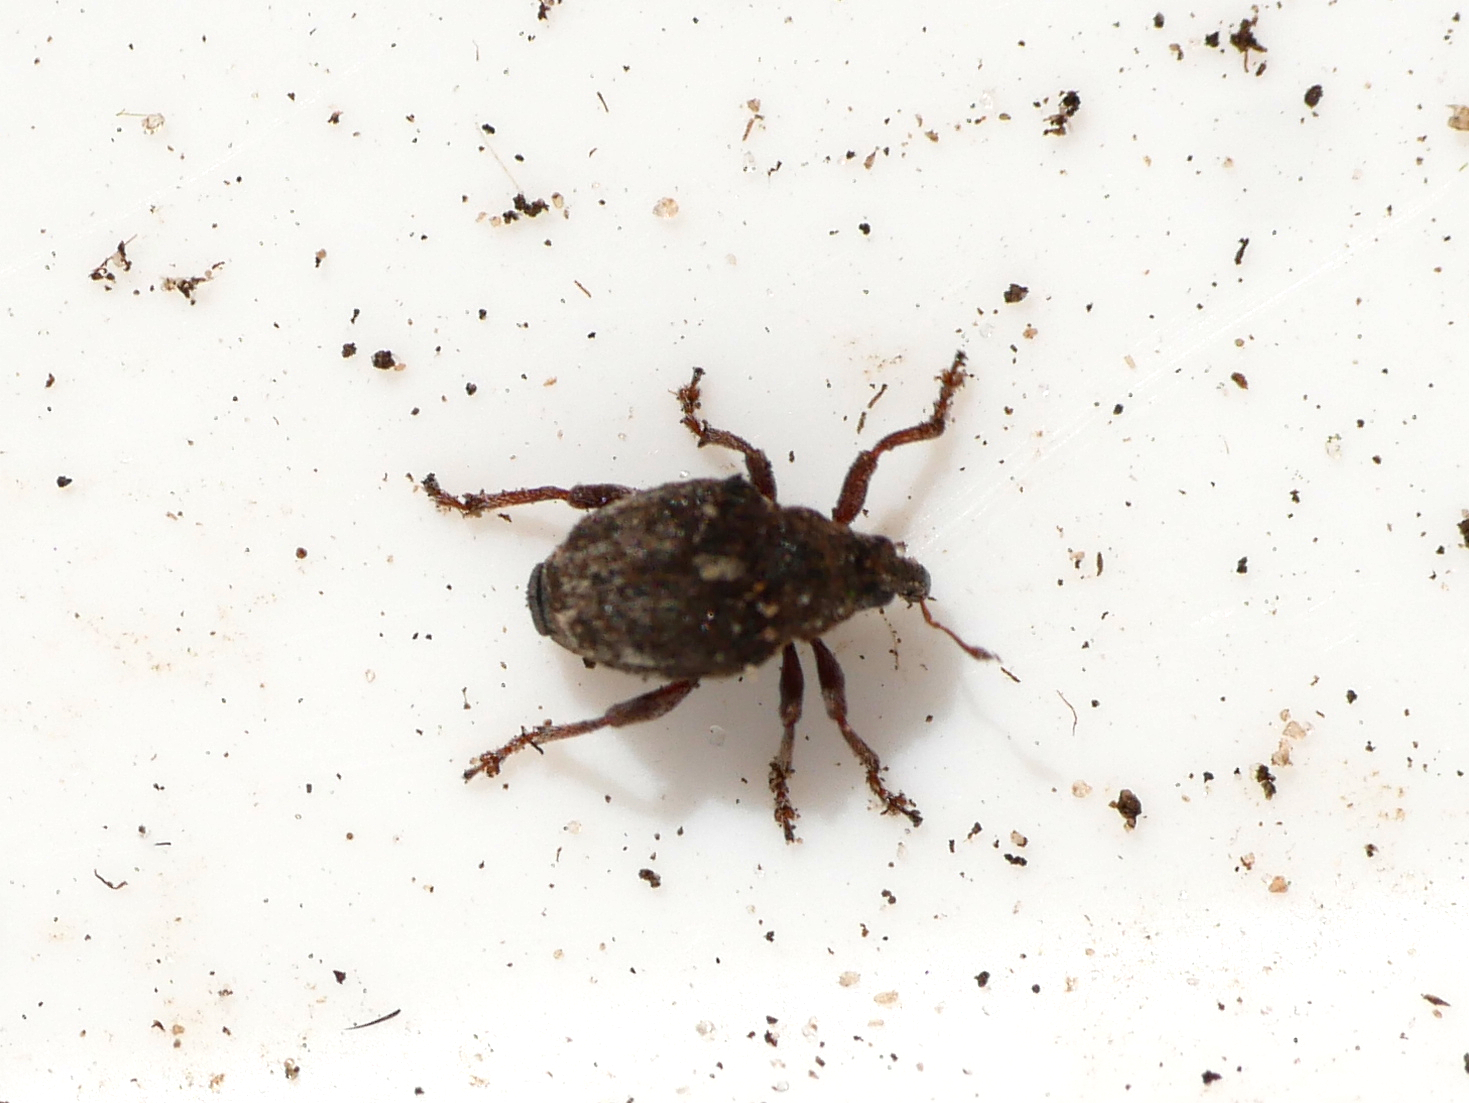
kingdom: Animalia
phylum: Arthropoda
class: Insecta
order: Coleoptera
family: Curculionidae
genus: Rhinoncus
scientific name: Rhinoncus pericarpius
